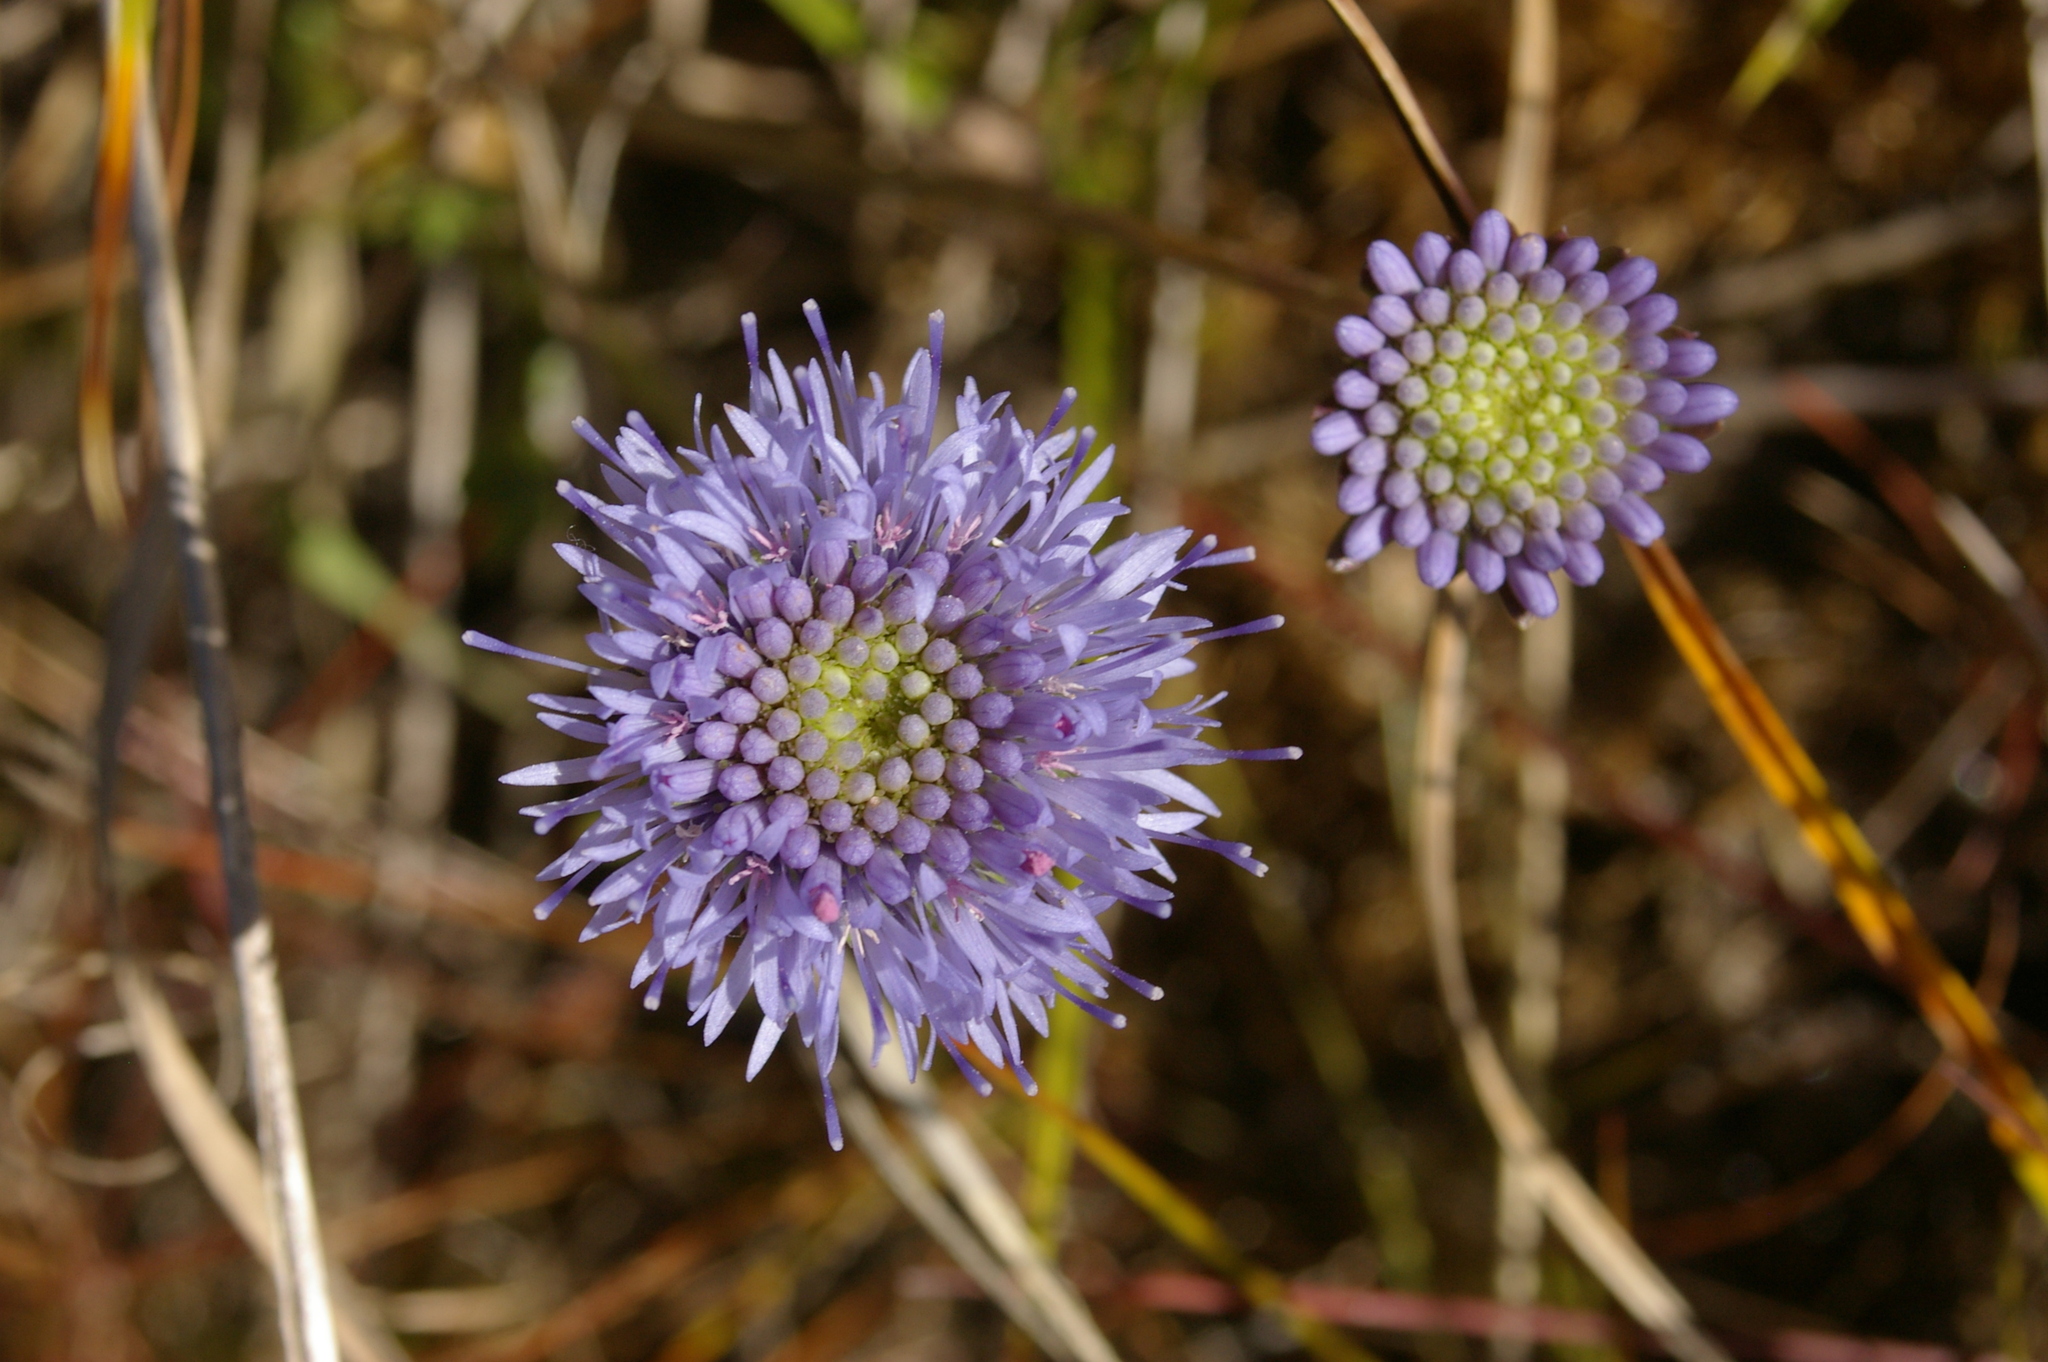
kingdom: Plantae
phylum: Tracheophyta
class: Magnoliopsida
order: Asterales
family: Campanulaceae
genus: Jasione
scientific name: Jasione montana
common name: Sheep's-bit
